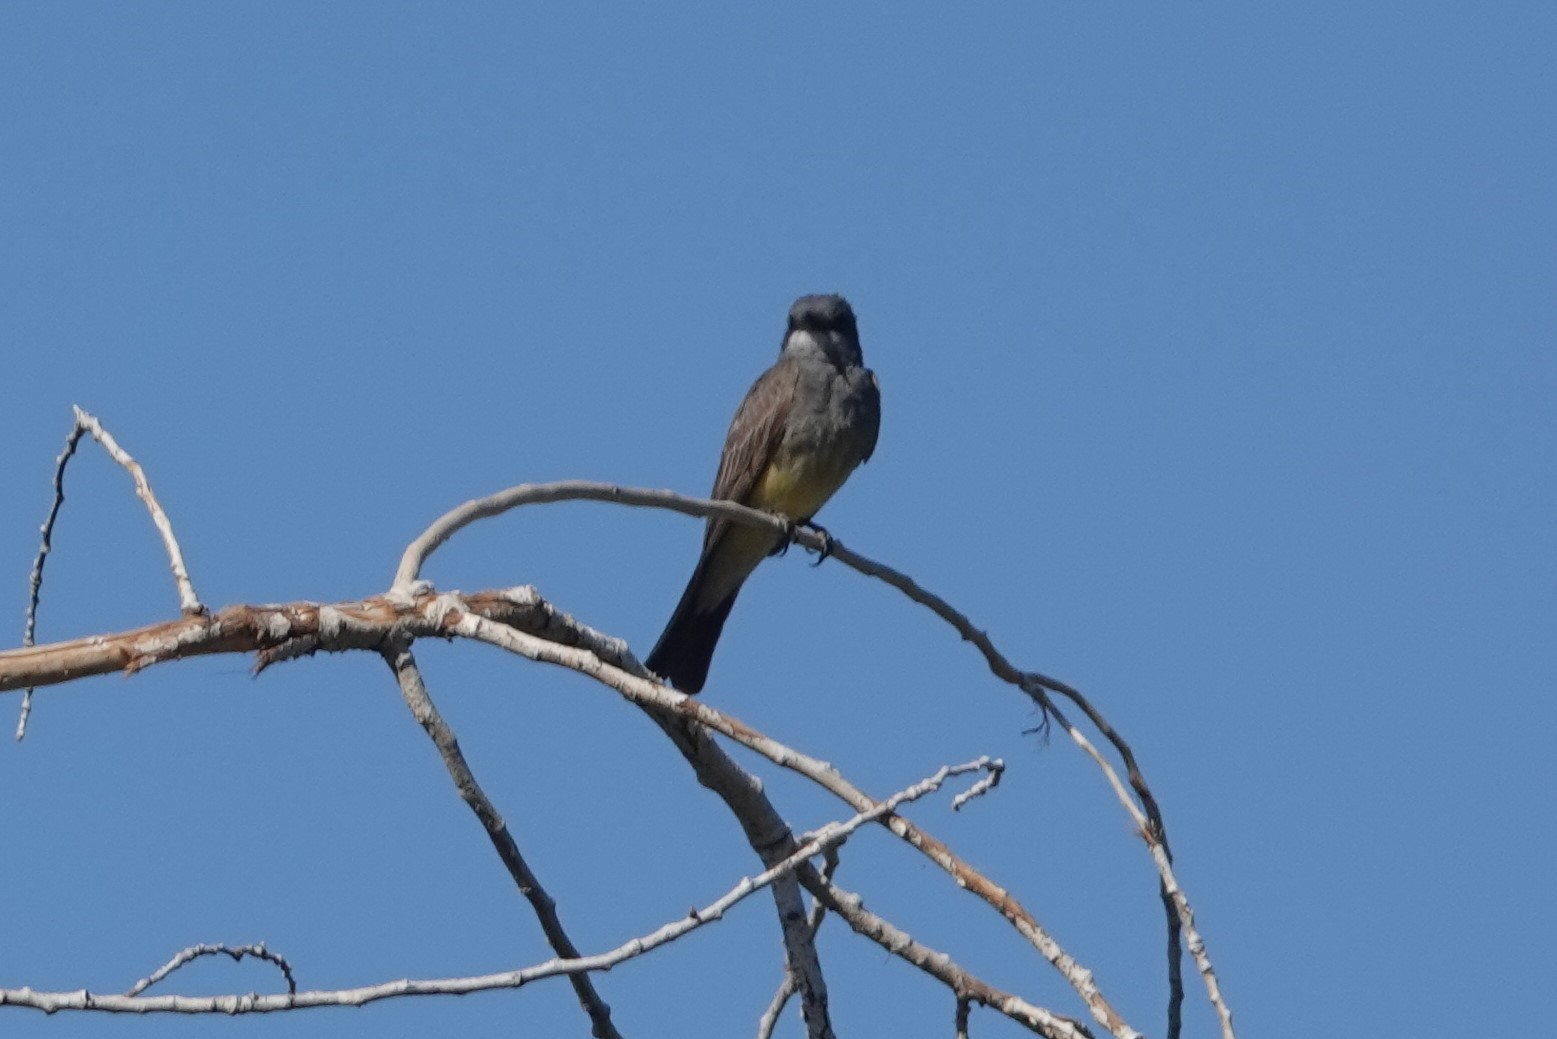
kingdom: Animalia
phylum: Chordata
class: Aves
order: Passeriformes
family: Tyrannidae
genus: Tyrannus
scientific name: Tyrannus vociferans
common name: Cassin's kingbird
